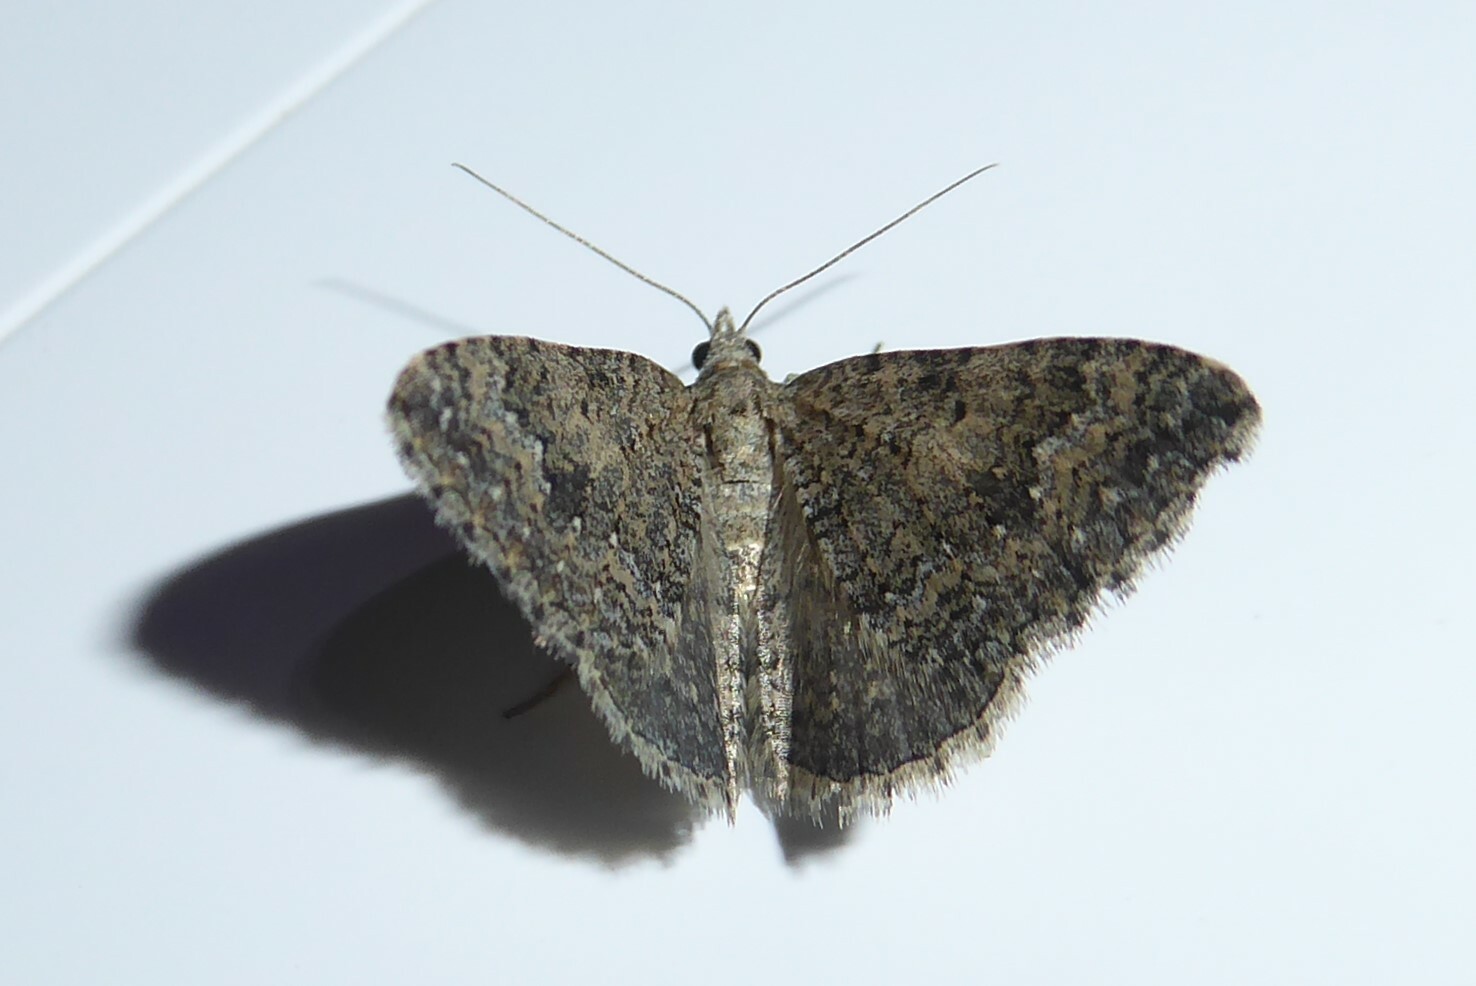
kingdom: Animalia
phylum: Arthropoda
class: Insecta
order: Lepidoptera
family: Geometridae
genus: Helastia
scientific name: Helastia corcularia
